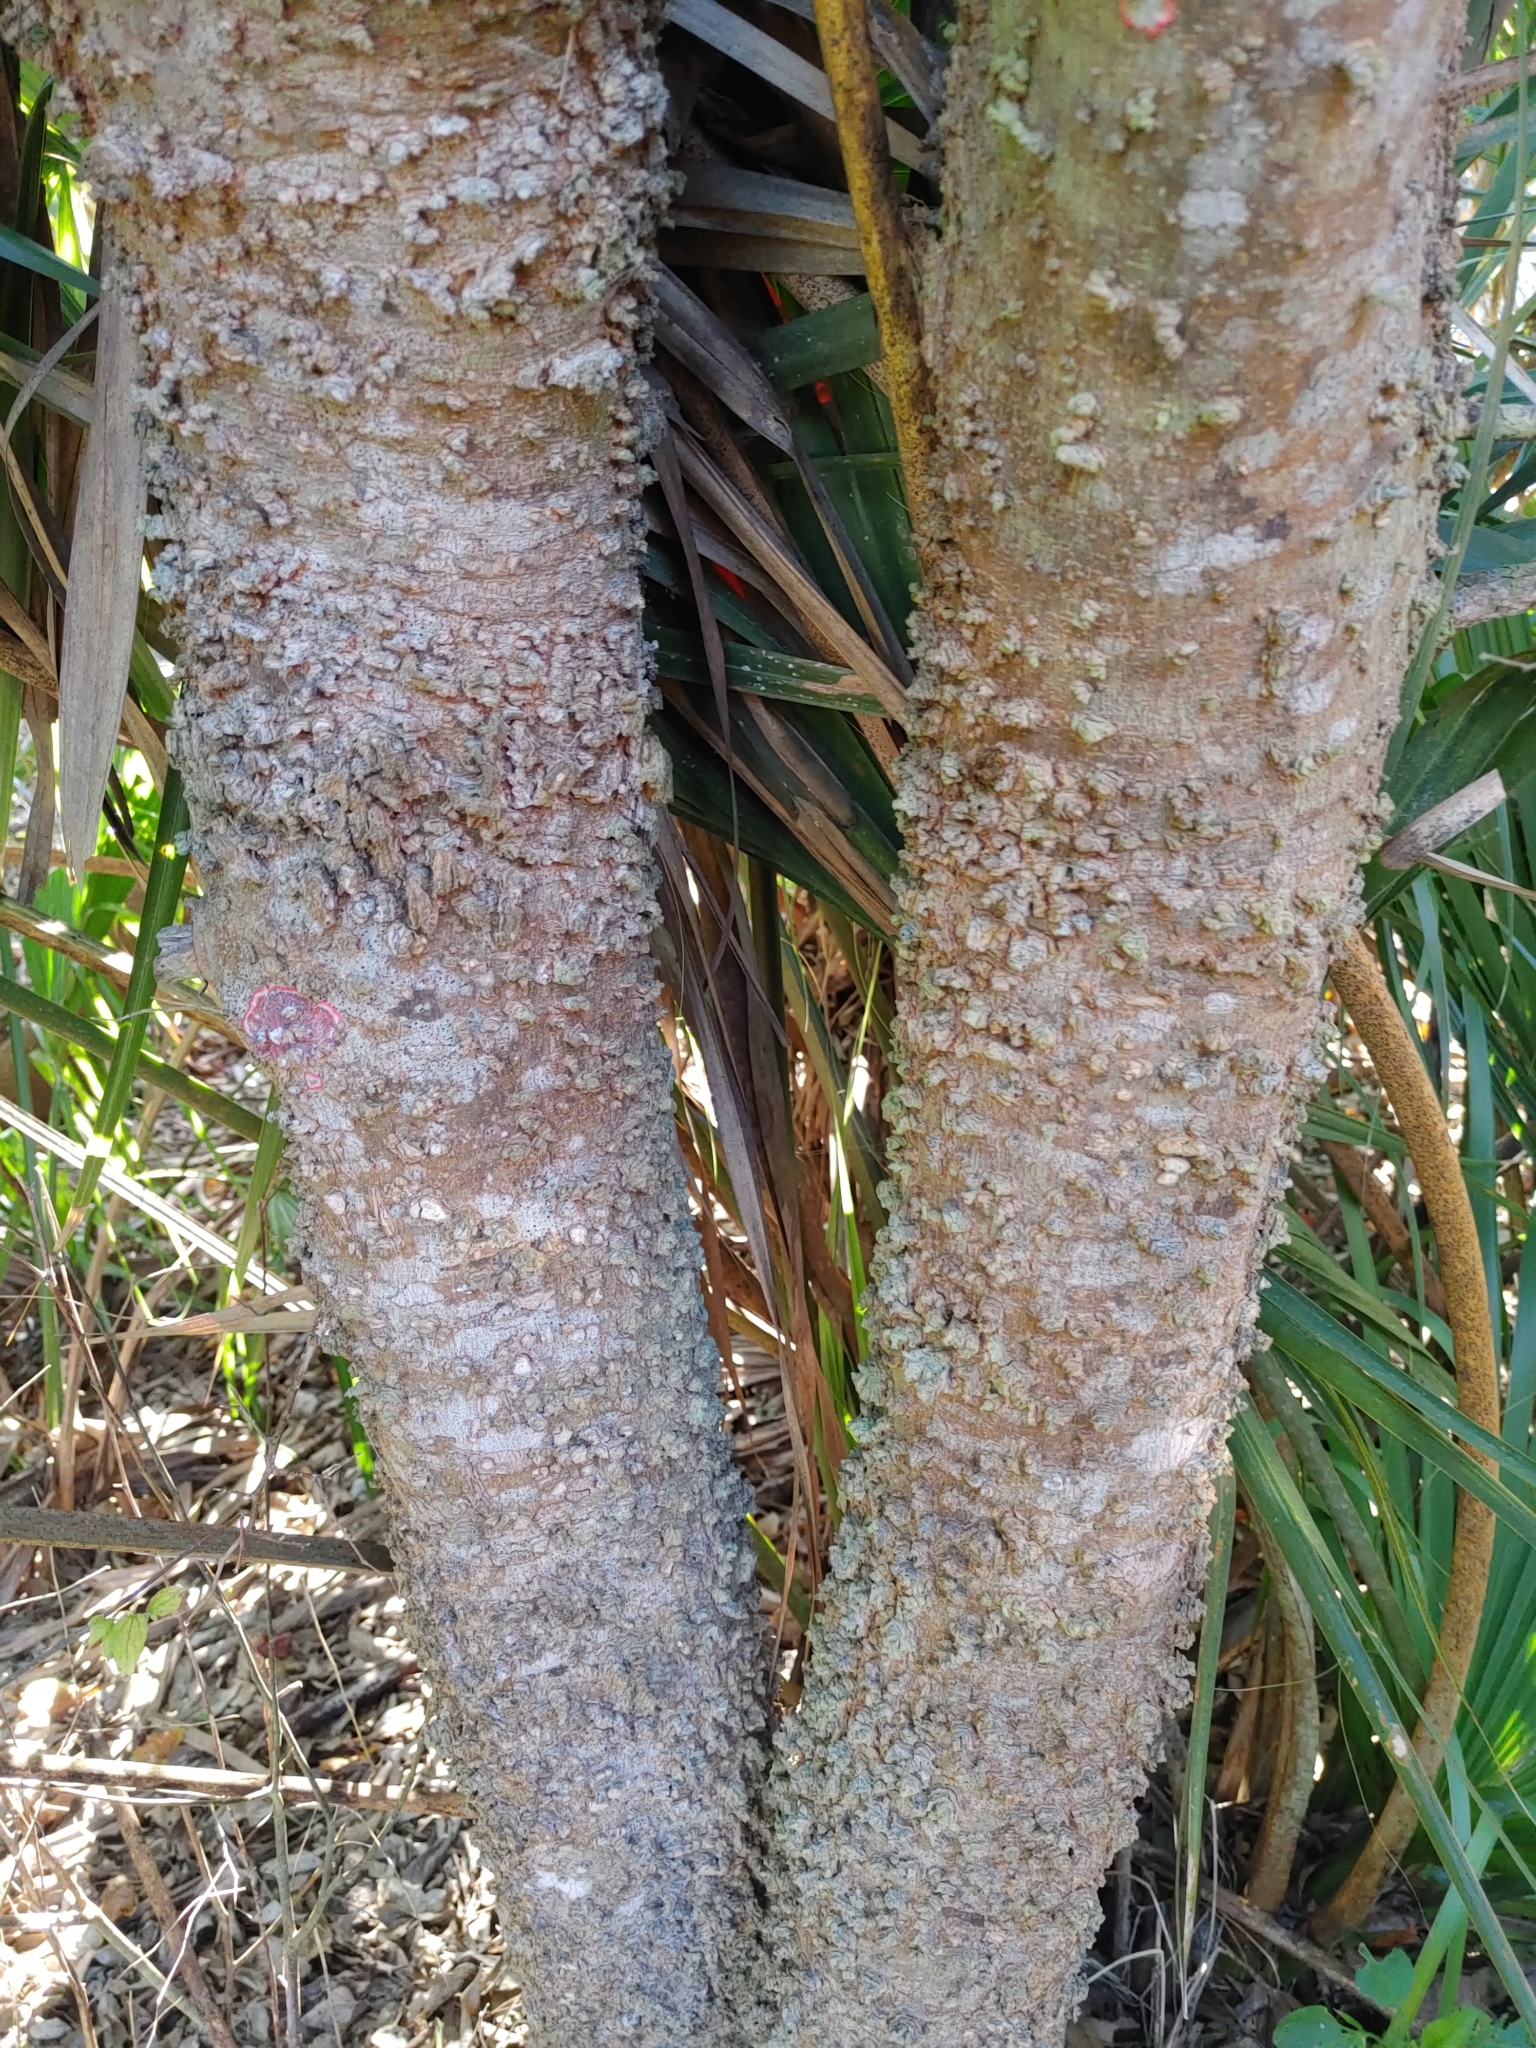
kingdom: Plantae
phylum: Tracheophyta
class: Magnoliopsida
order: Rosales
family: Cannabaceae
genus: Celtis
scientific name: Celtis laevigata
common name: Sugarberry
